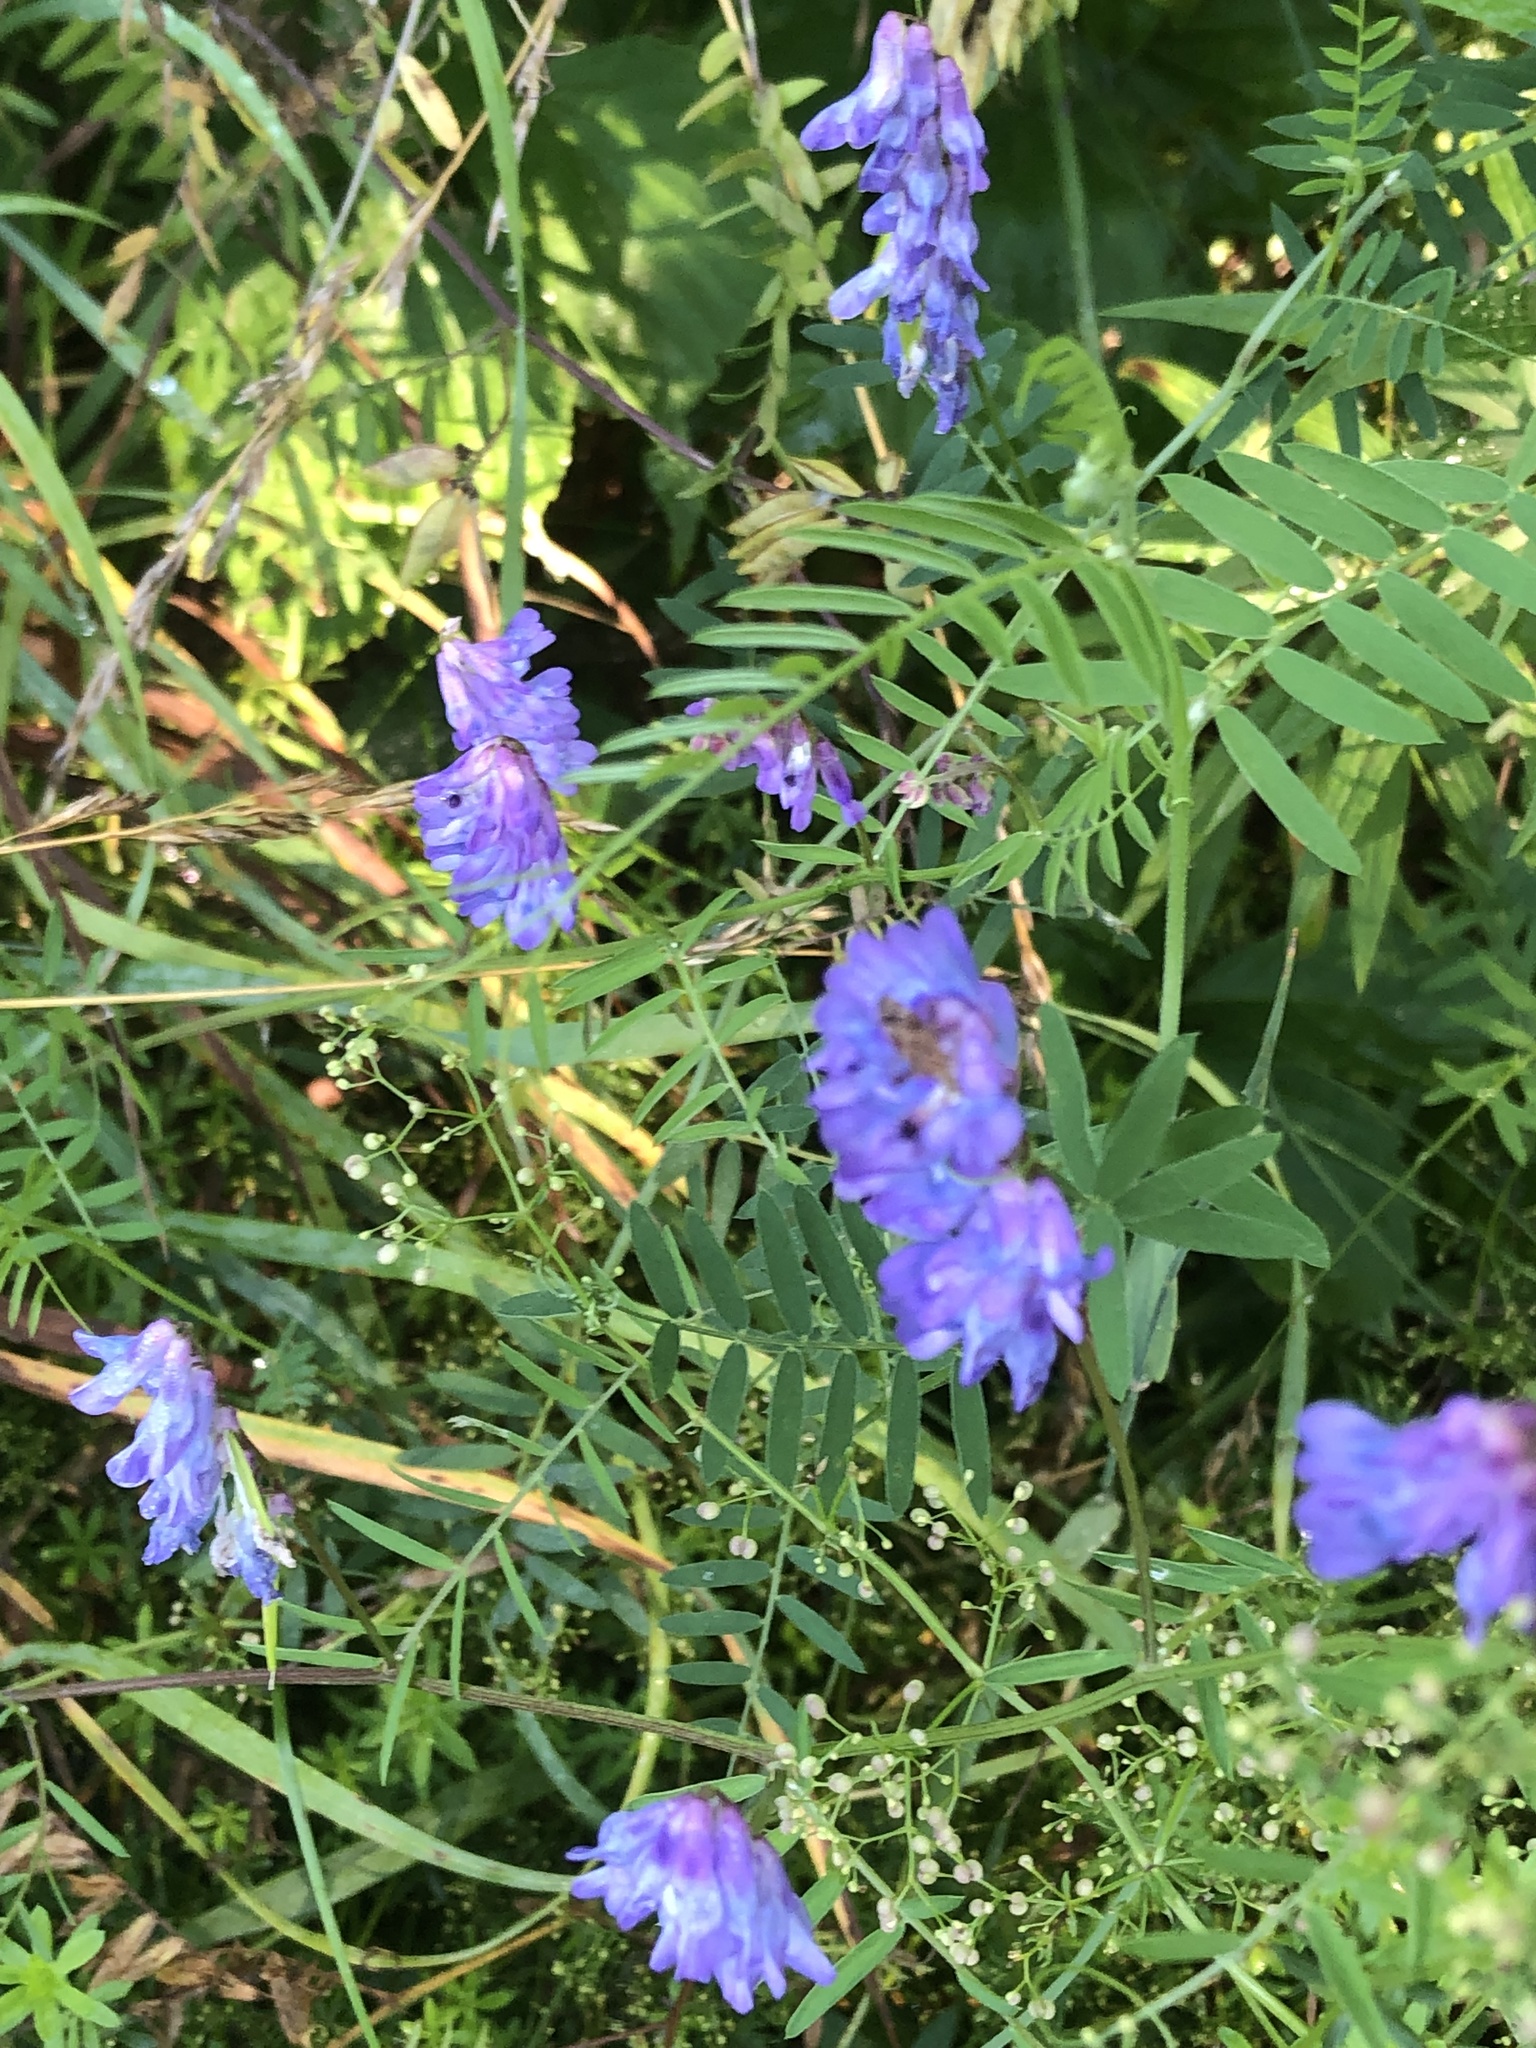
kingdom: Plantae
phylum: Tracheophyta
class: Magnoliopsida
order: Fabales
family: Fabaceae
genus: Vicia
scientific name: Vicia cracca
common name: Bird vetch
